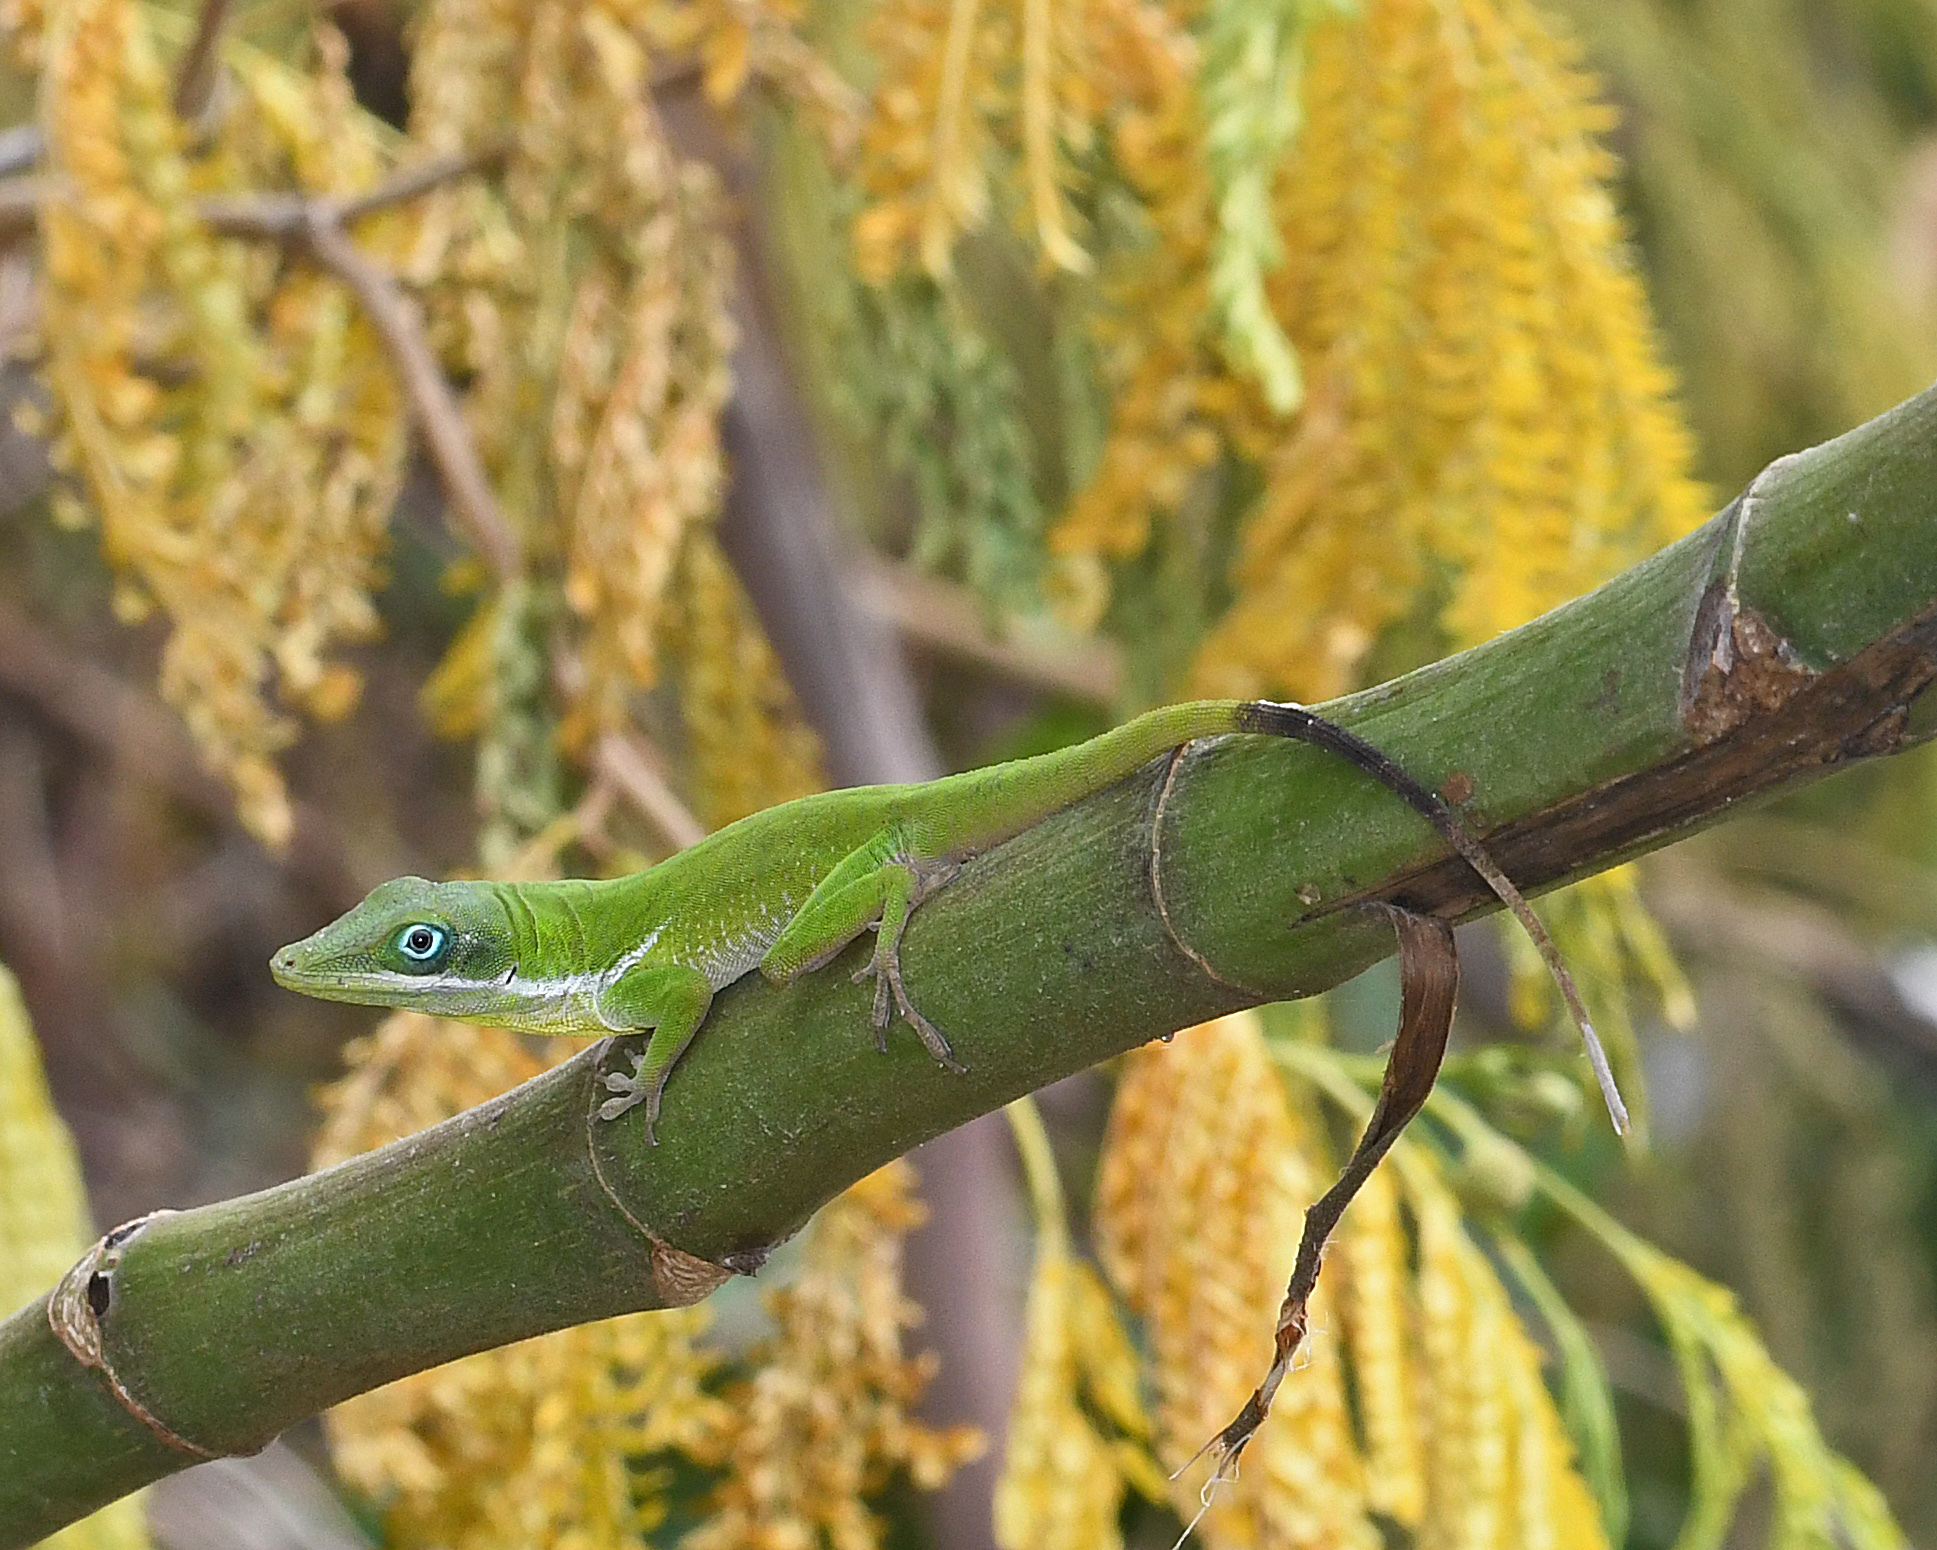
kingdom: Animalia
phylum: Chordata
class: Squamata
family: Dactyloidae
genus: Anolis
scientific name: Anolis viridius
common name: Barahona green anole
